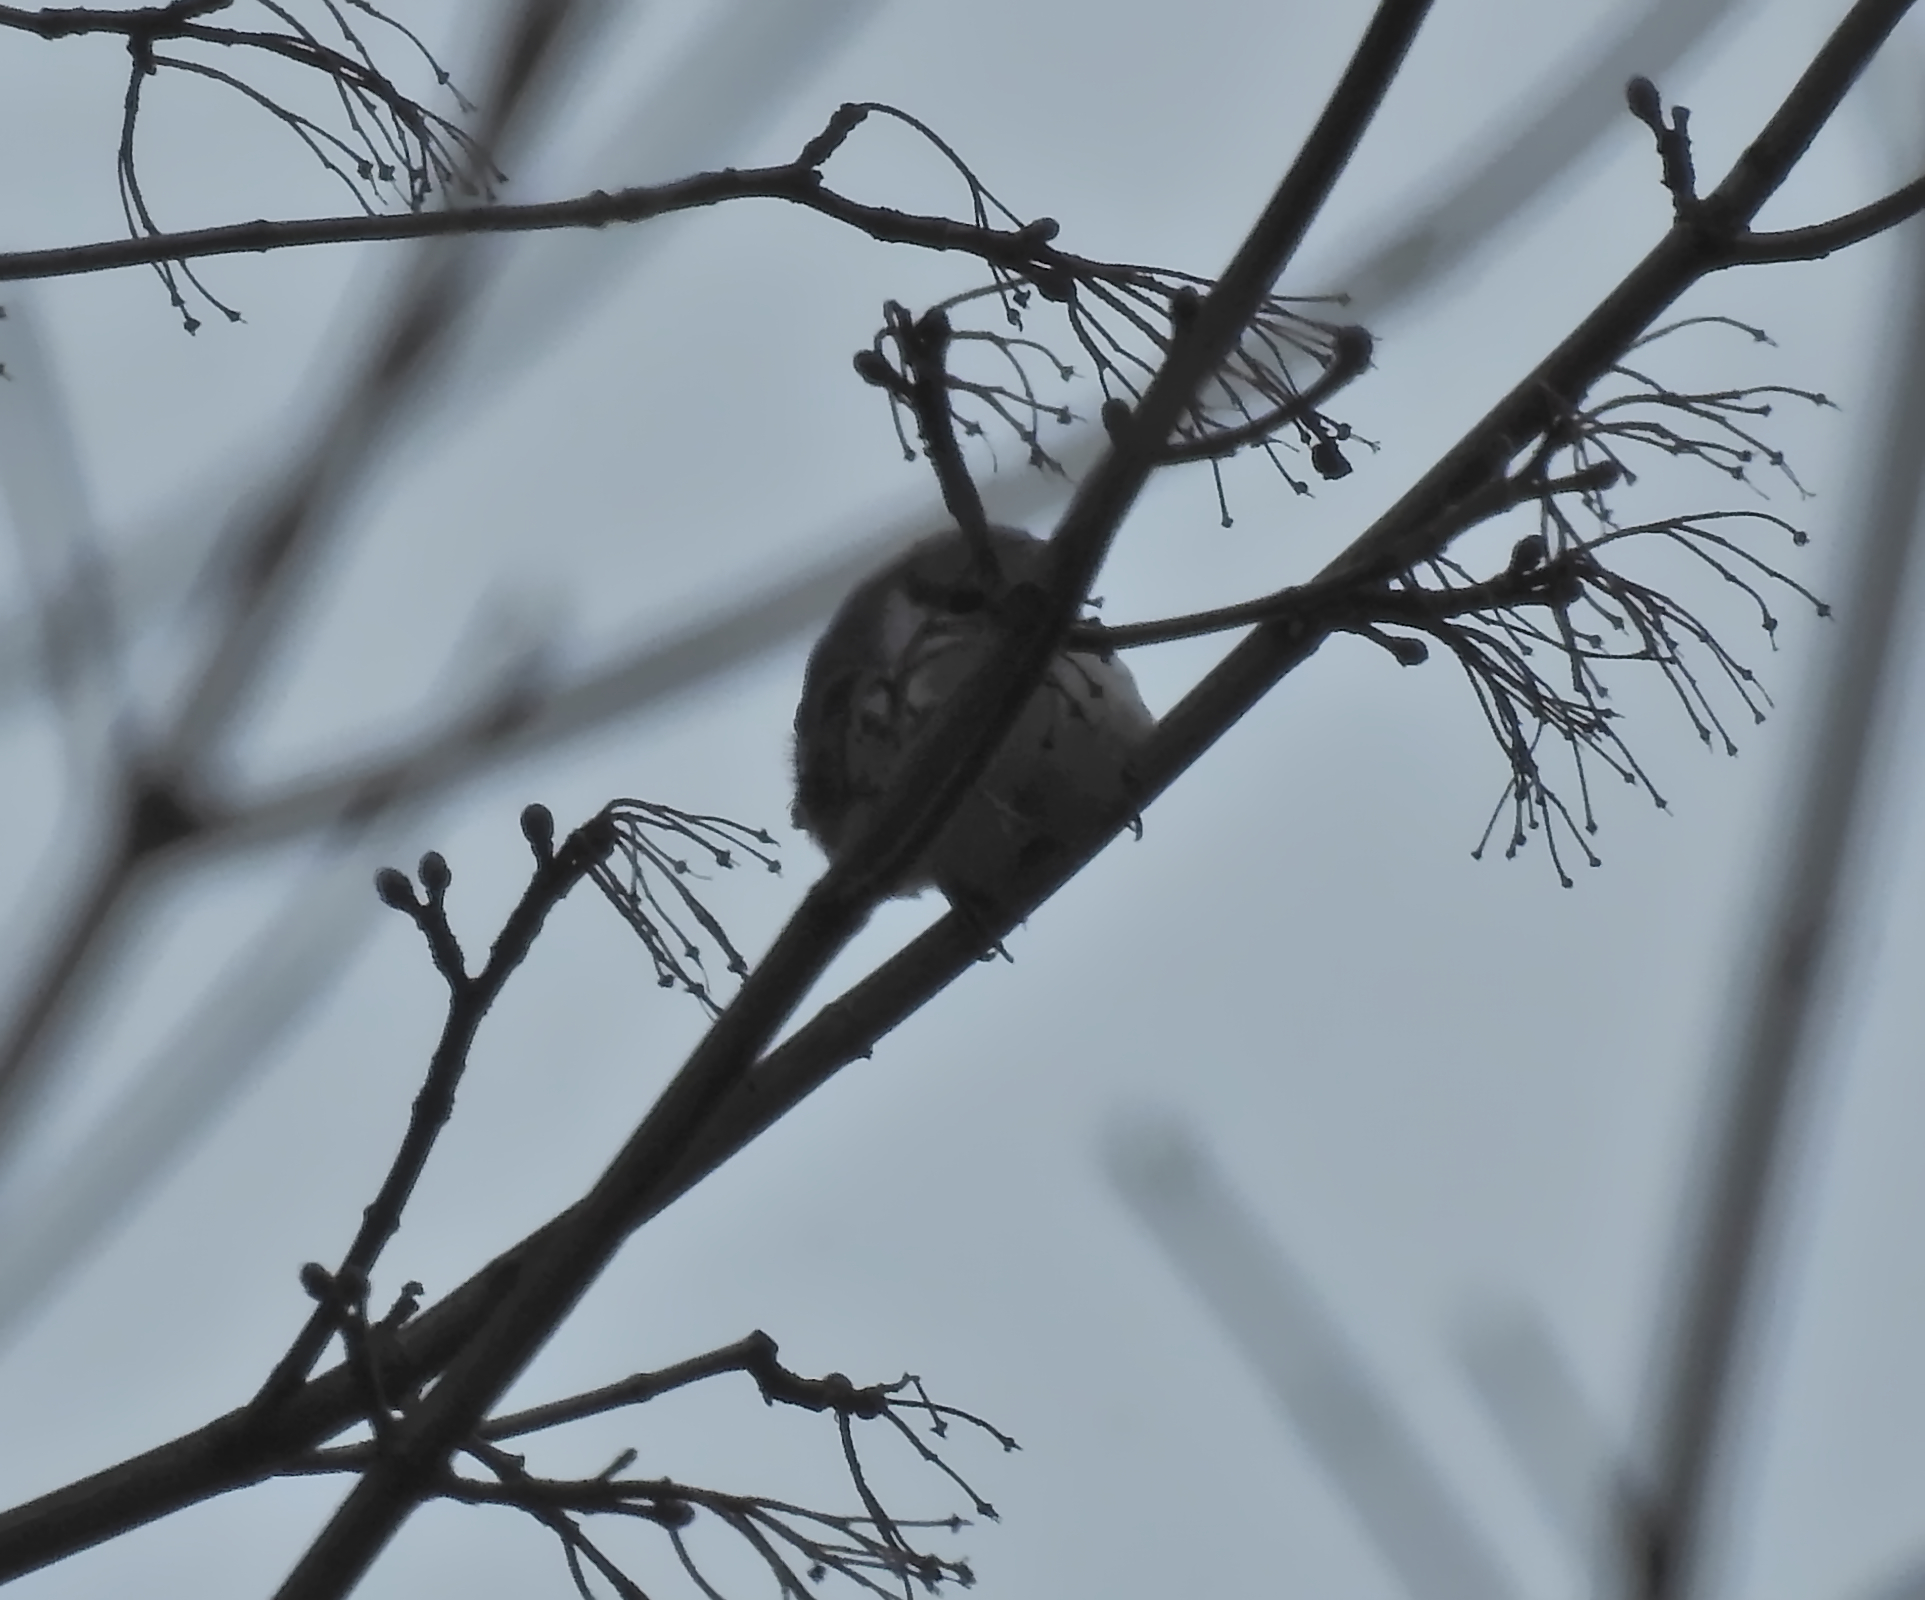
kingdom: Animalia
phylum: Chordata
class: Aves
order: Passeriformes
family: Sittidae
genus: Sitta
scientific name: Sitta europaea
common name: Eurasian nuthatch
